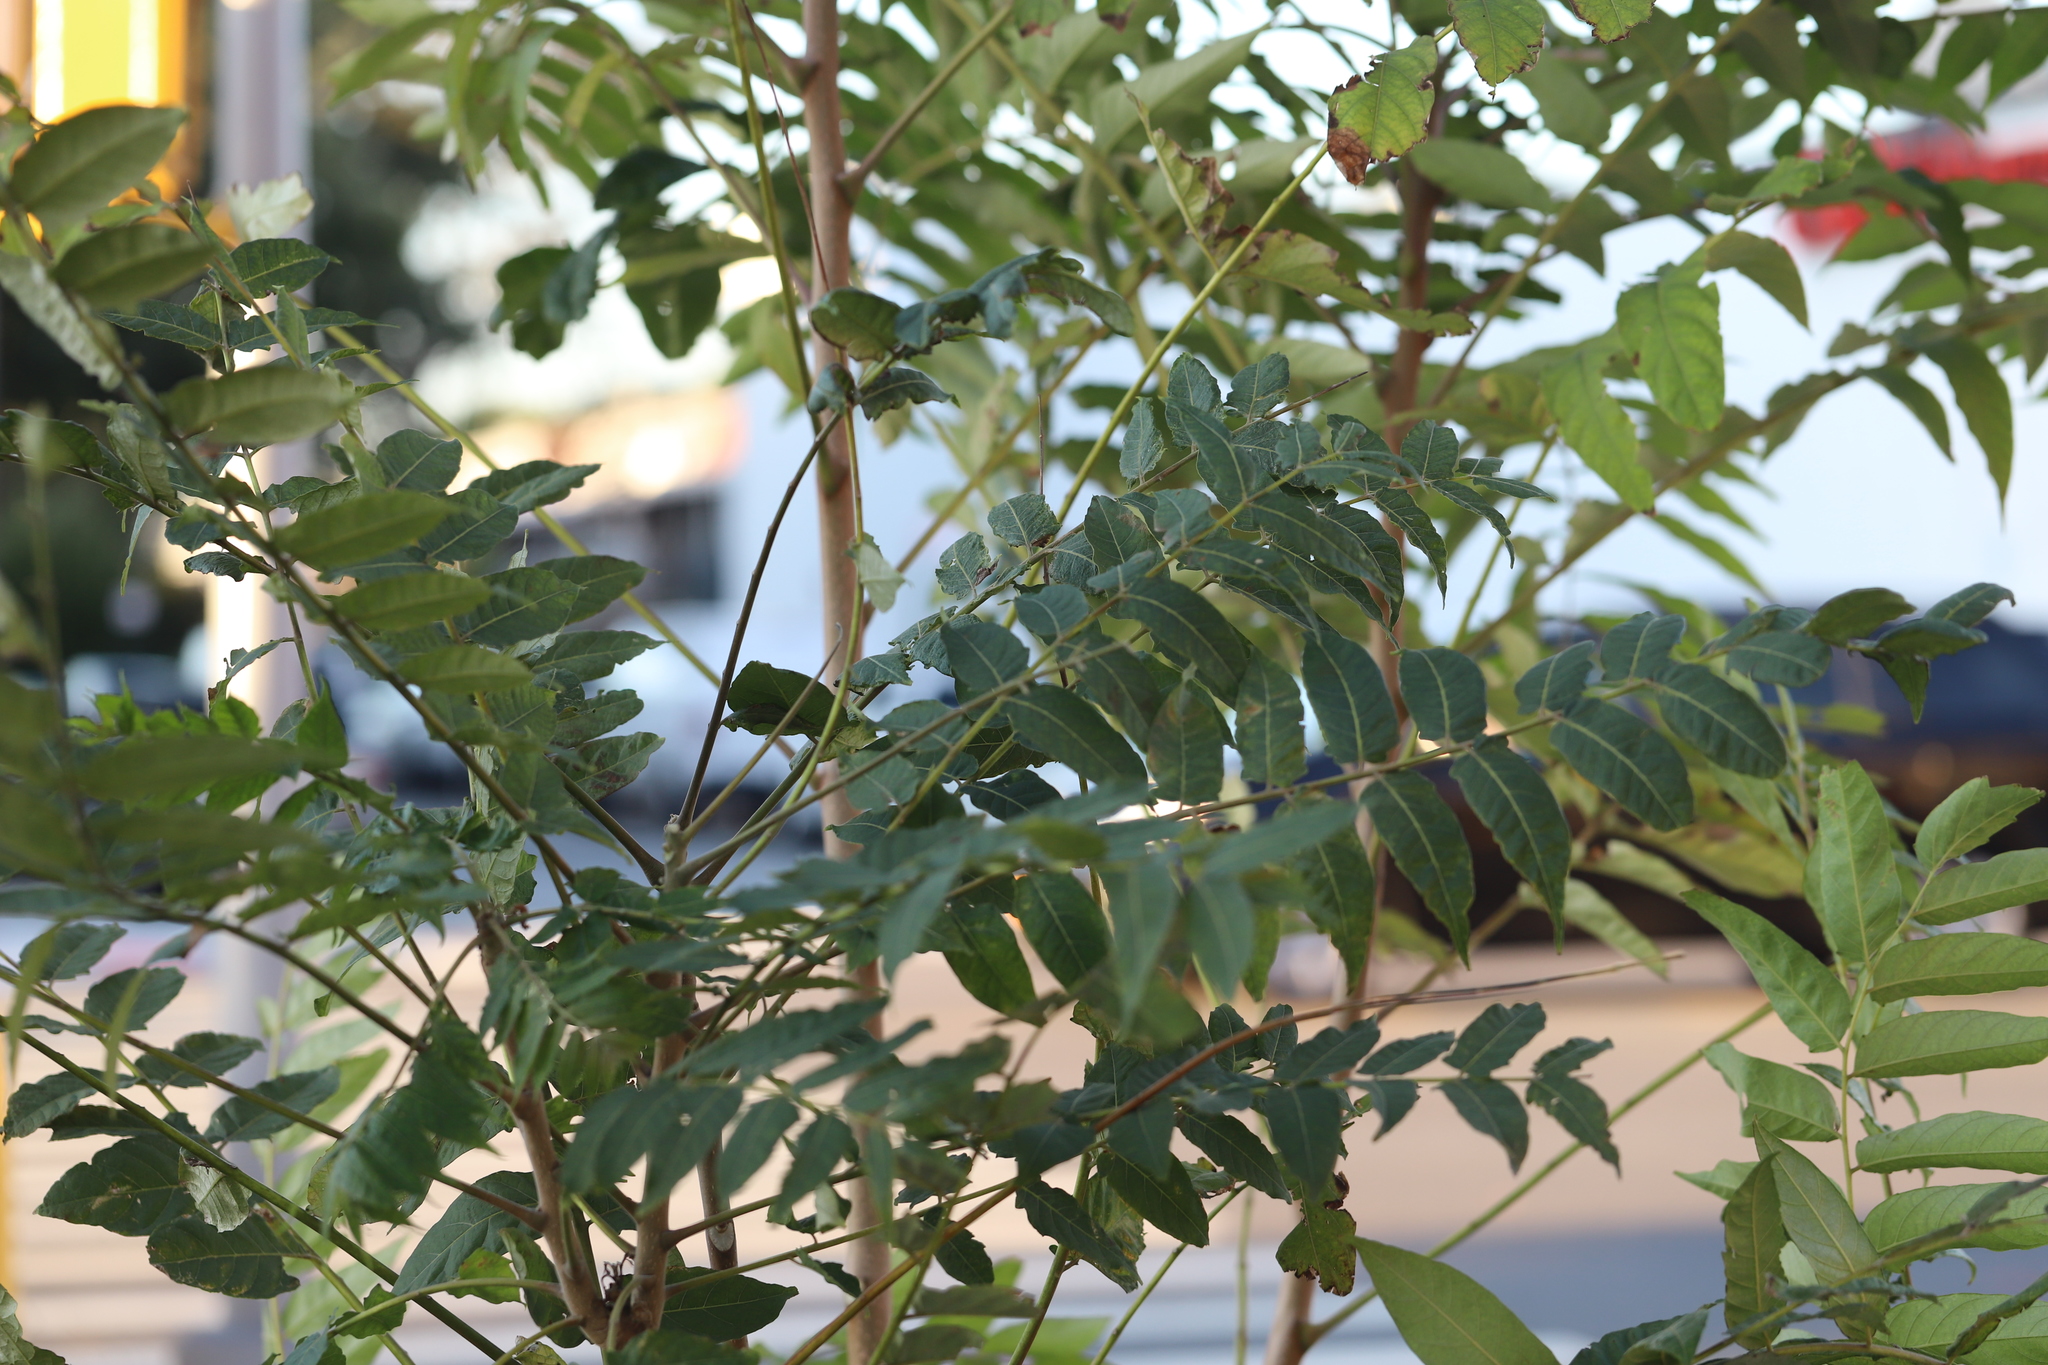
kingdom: Plantae
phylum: Tracheophyta
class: Magnoliopsida
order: Sapindales
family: Simaroubaceae
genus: Ailanthus
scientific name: Ailanthus altissima
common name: Tree-of-heaven
